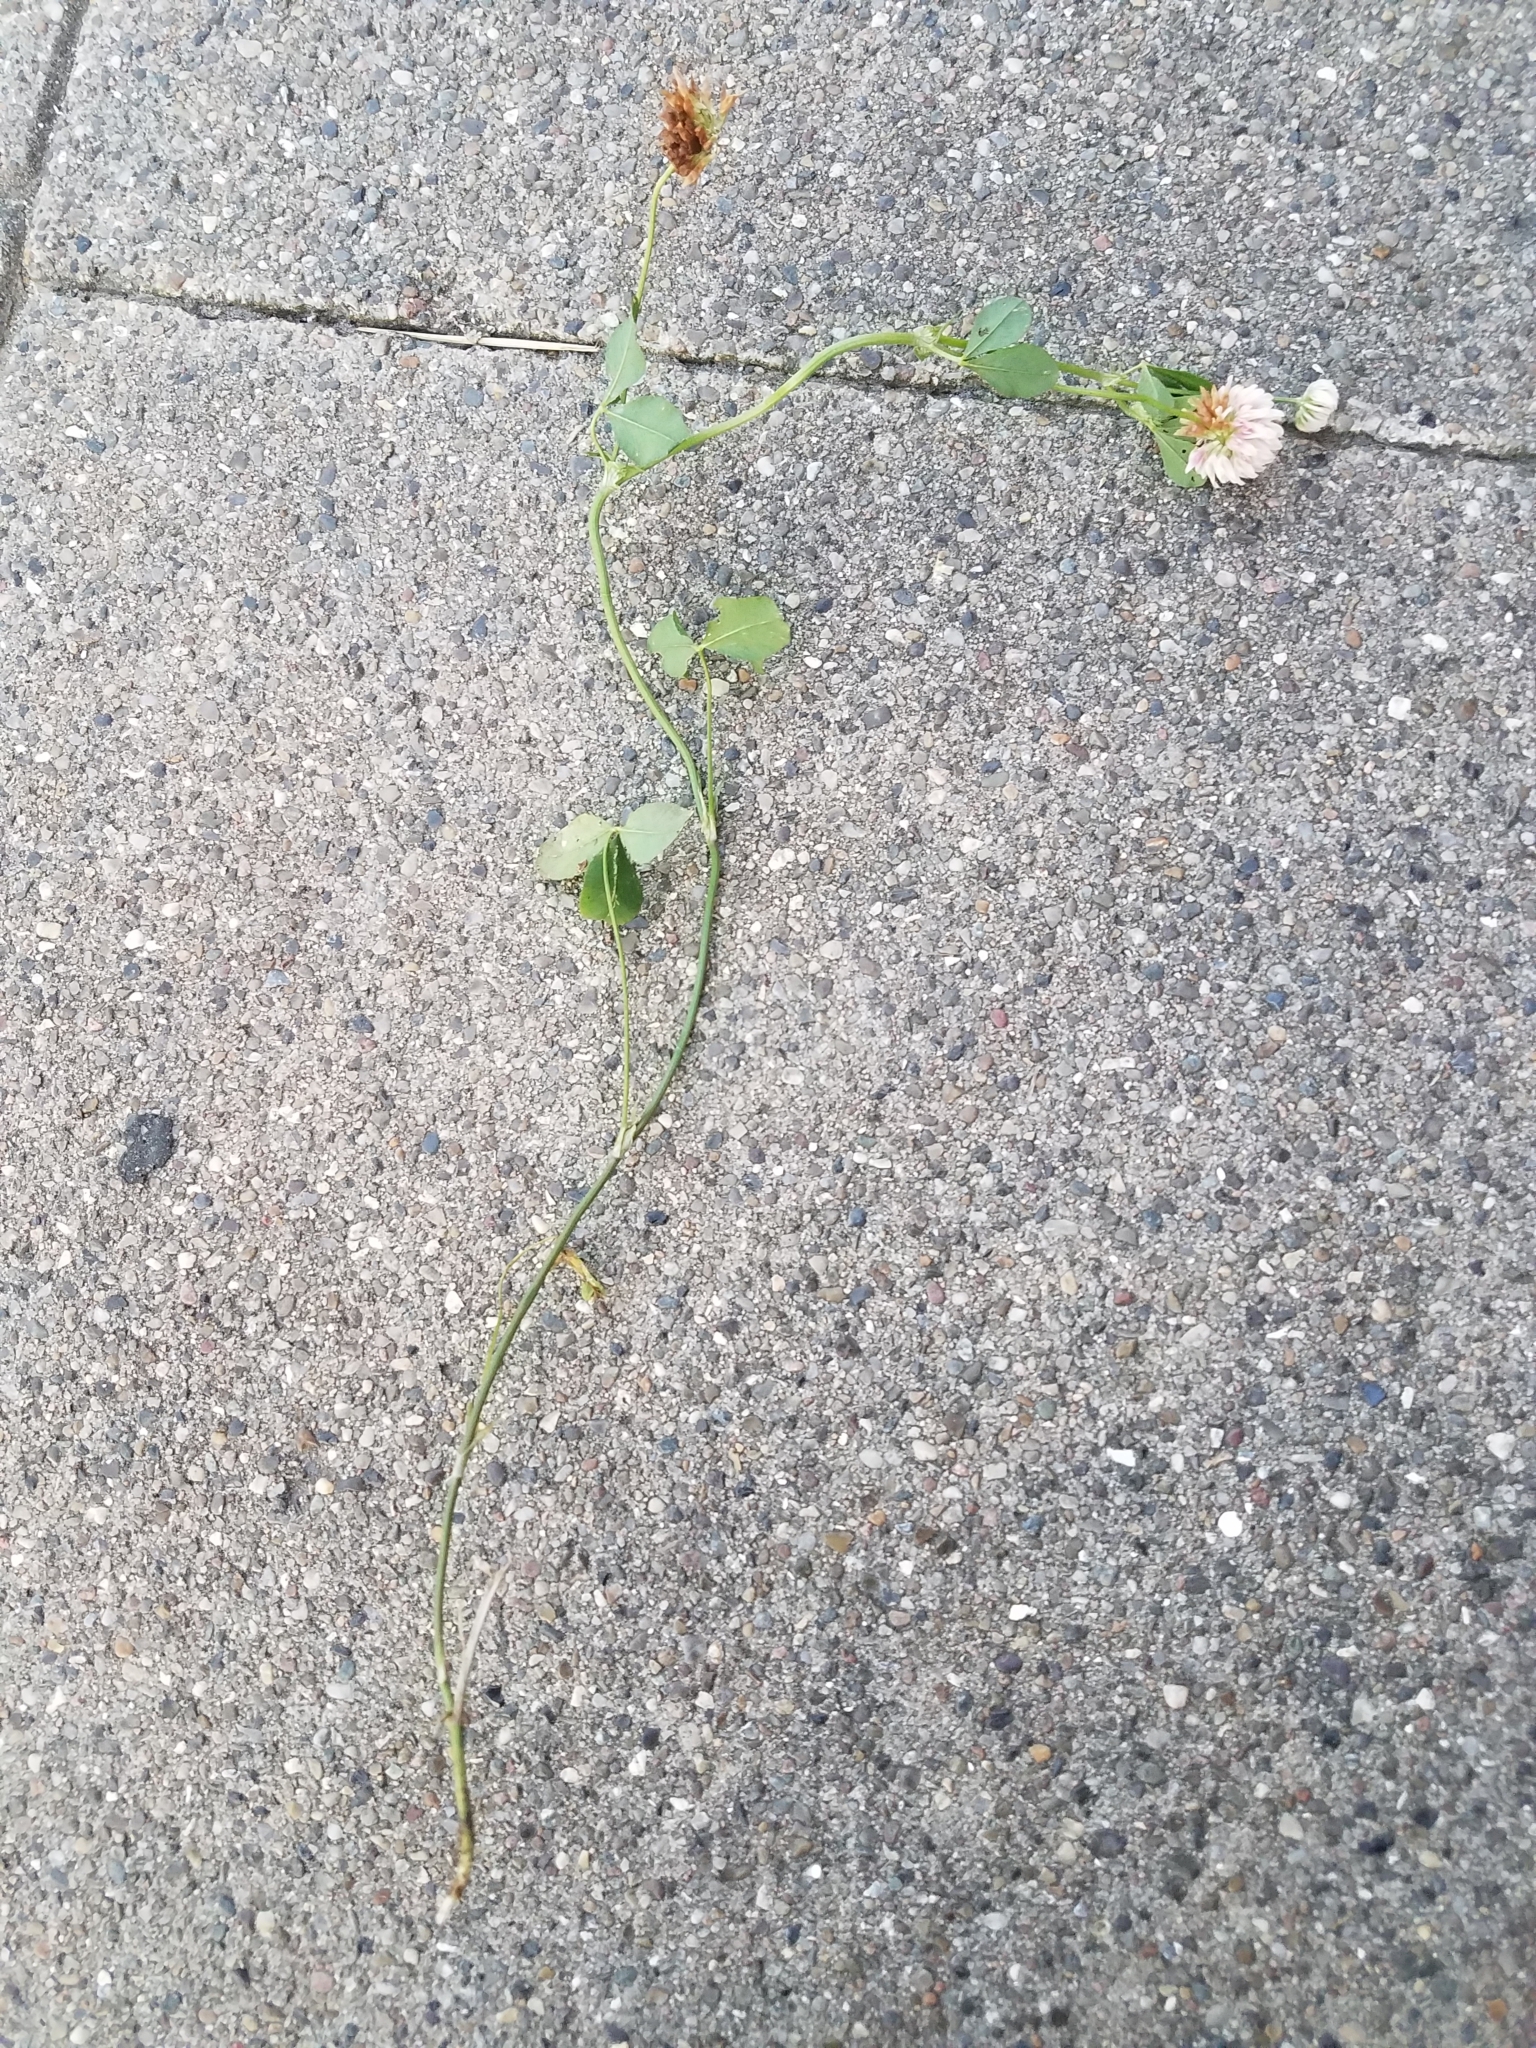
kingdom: Plantae
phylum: Tracheophyta
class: Magnoliopsida
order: Fabales
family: Fabaceae
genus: Trifolium
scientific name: Trifolium hybridum
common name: Alsike clover
